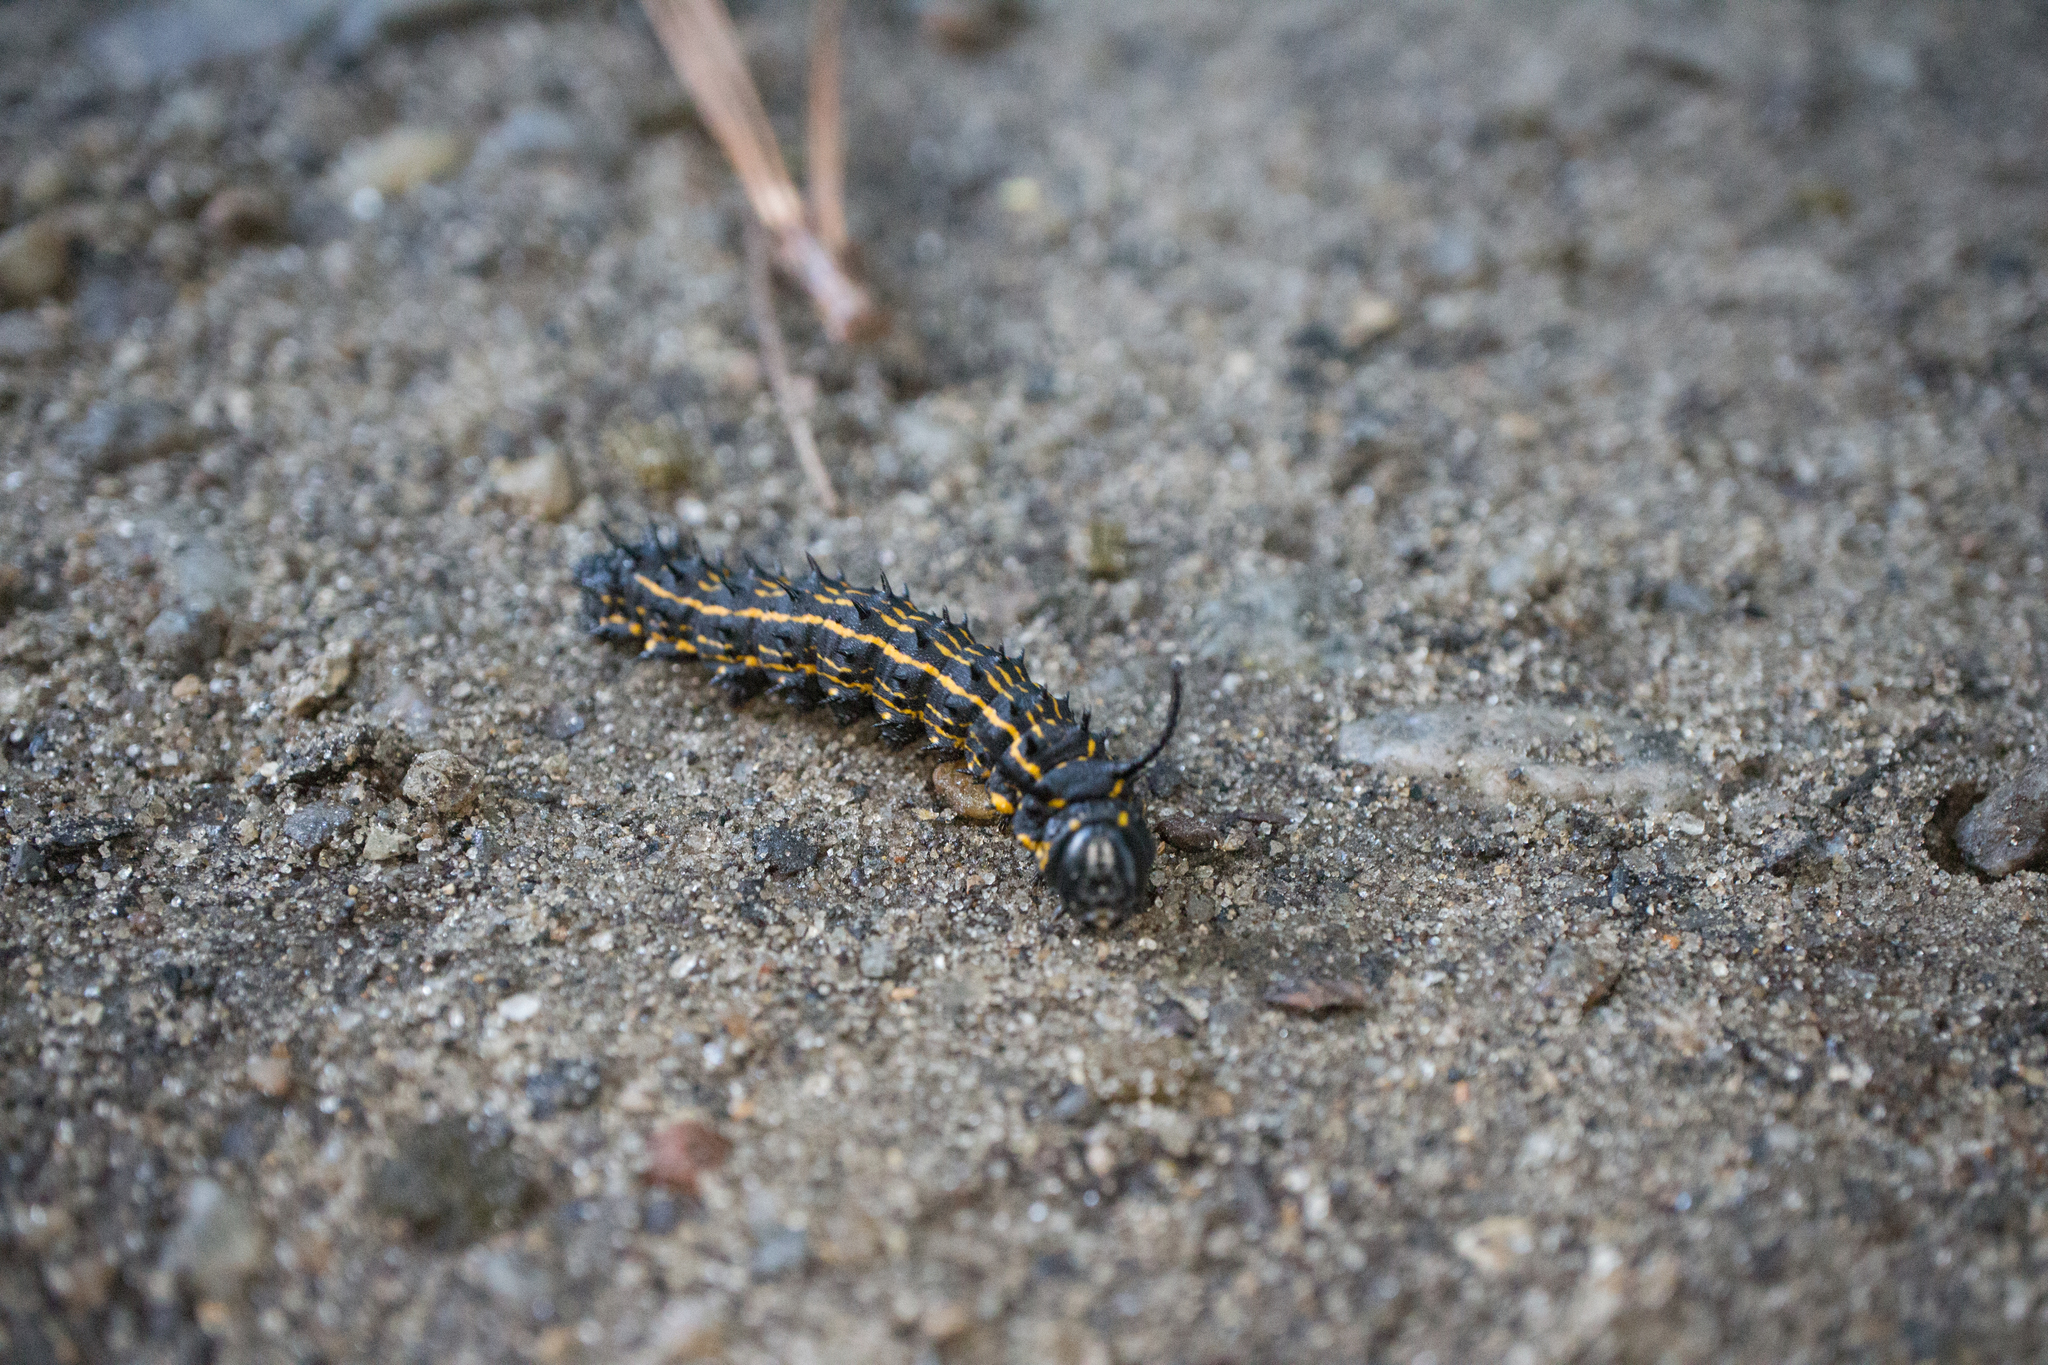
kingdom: Animalia
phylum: Arthropoda
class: Insecta
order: Lepidoptera
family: Saturniidae
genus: Anisota
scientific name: Anisota peigleri
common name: Peigler's oakworm moth
